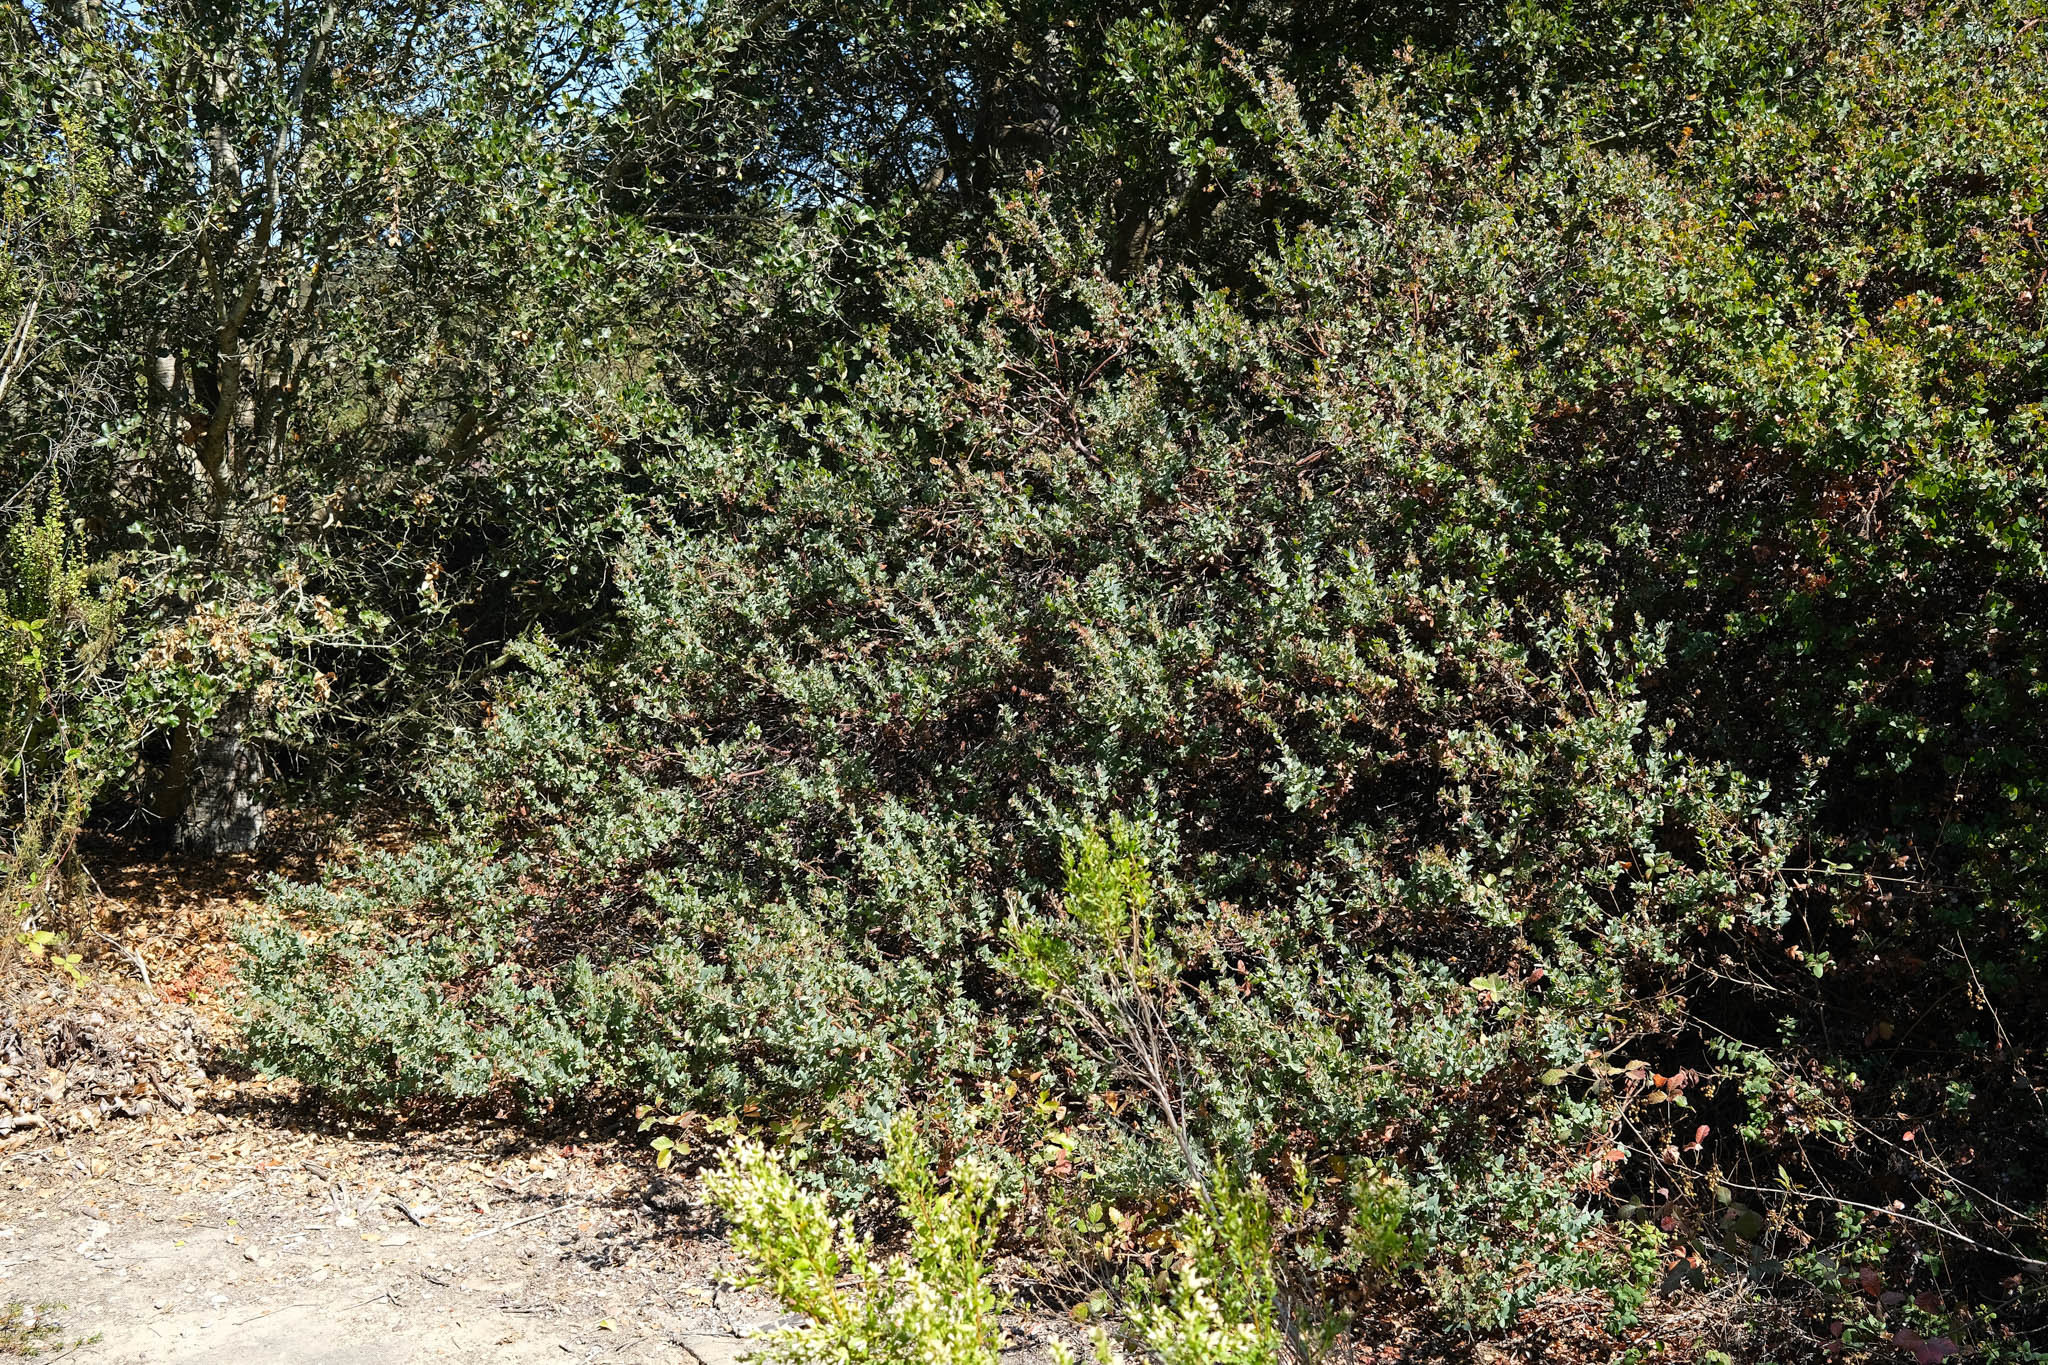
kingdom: Plantae
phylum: Tracheophyta
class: Magnoliopsida
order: Ericales
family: Ericaceae
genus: Arctostaphylos
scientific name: Arctostaphylos pajaroensis
